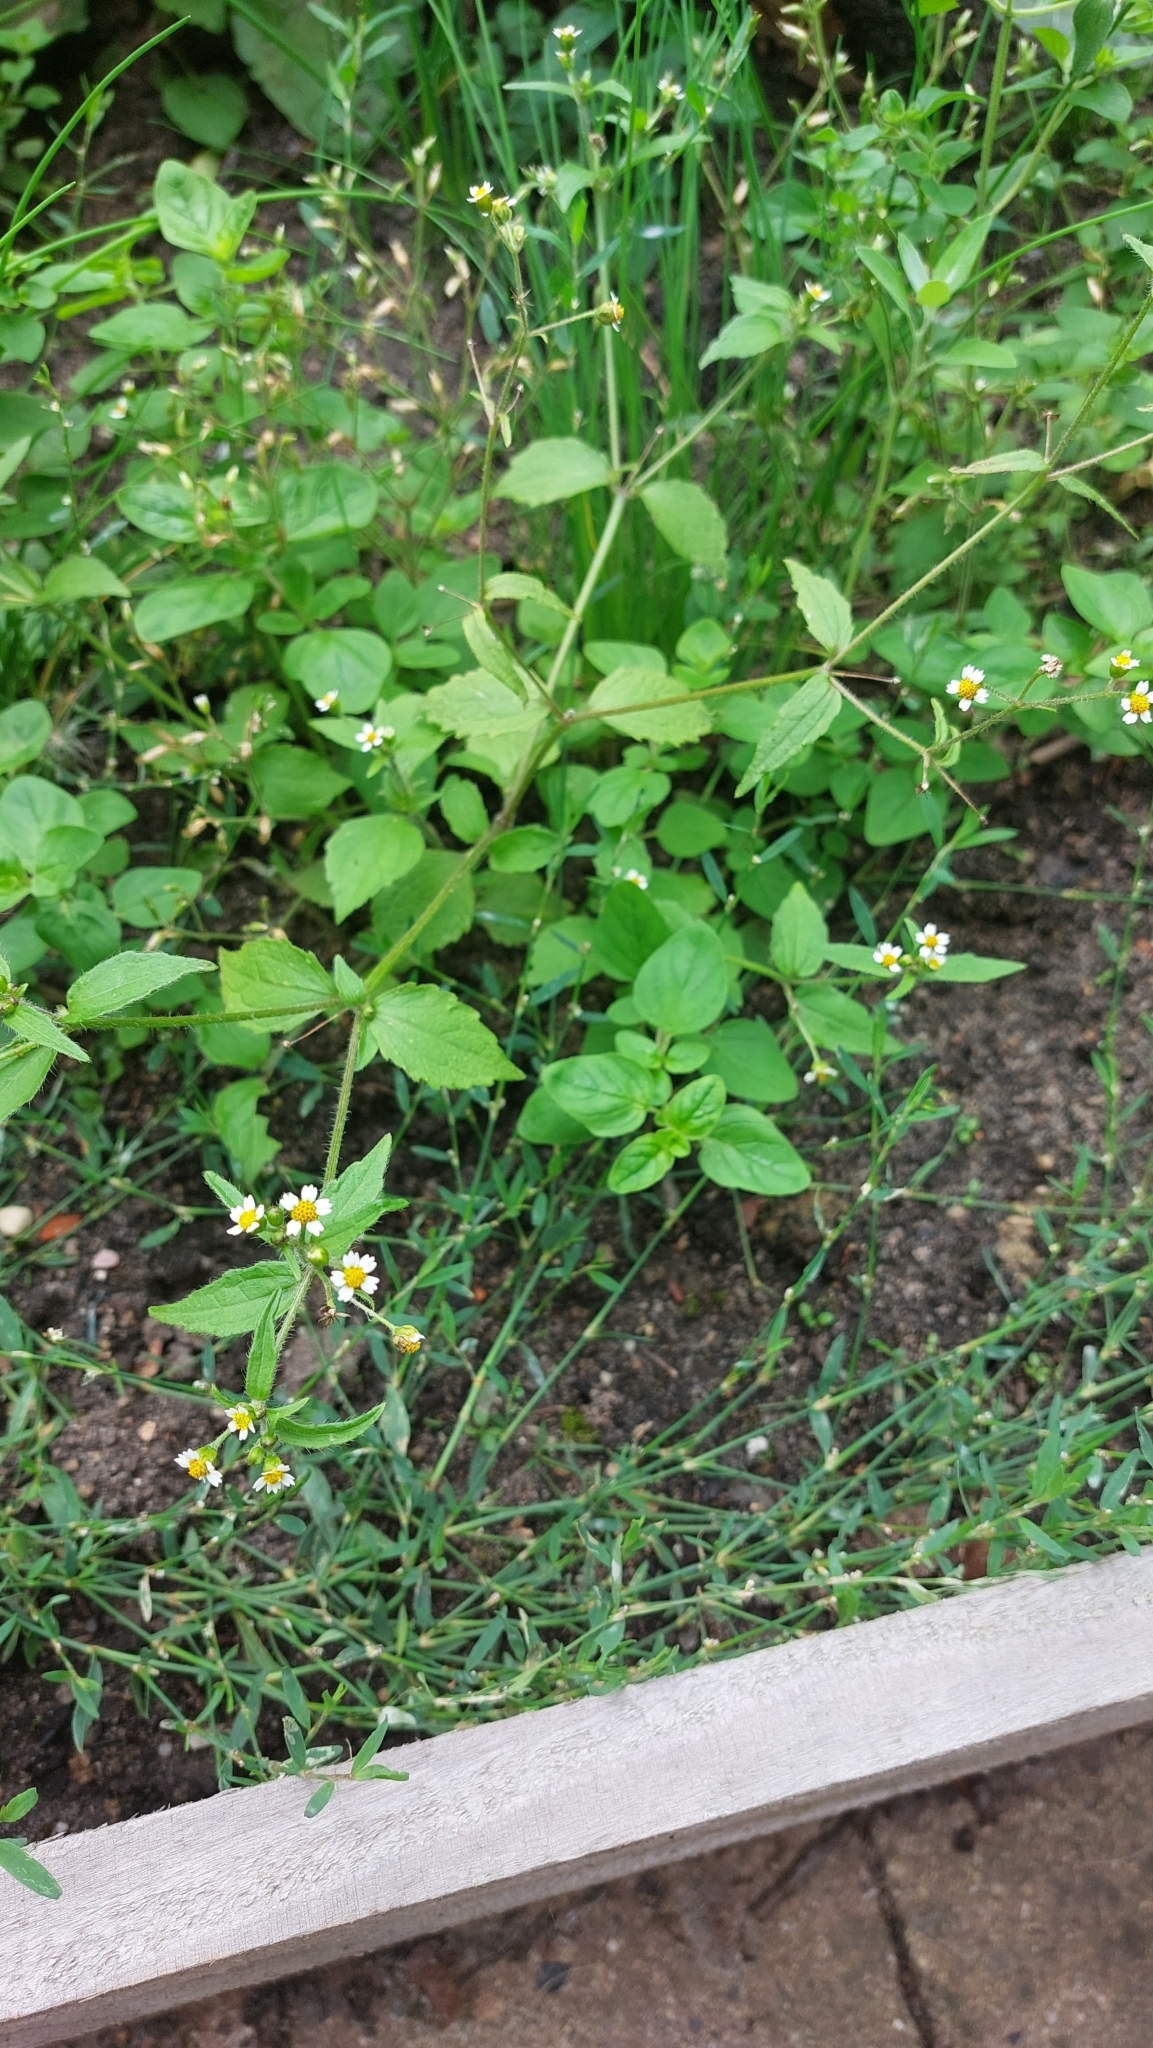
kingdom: Plantae
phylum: Tracheophyta
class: Magnoliopsida
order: Asterales
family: Asteraceae
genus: Galinsoga
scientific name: Galinsoga quadriradiata
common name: Shaggy soldier
